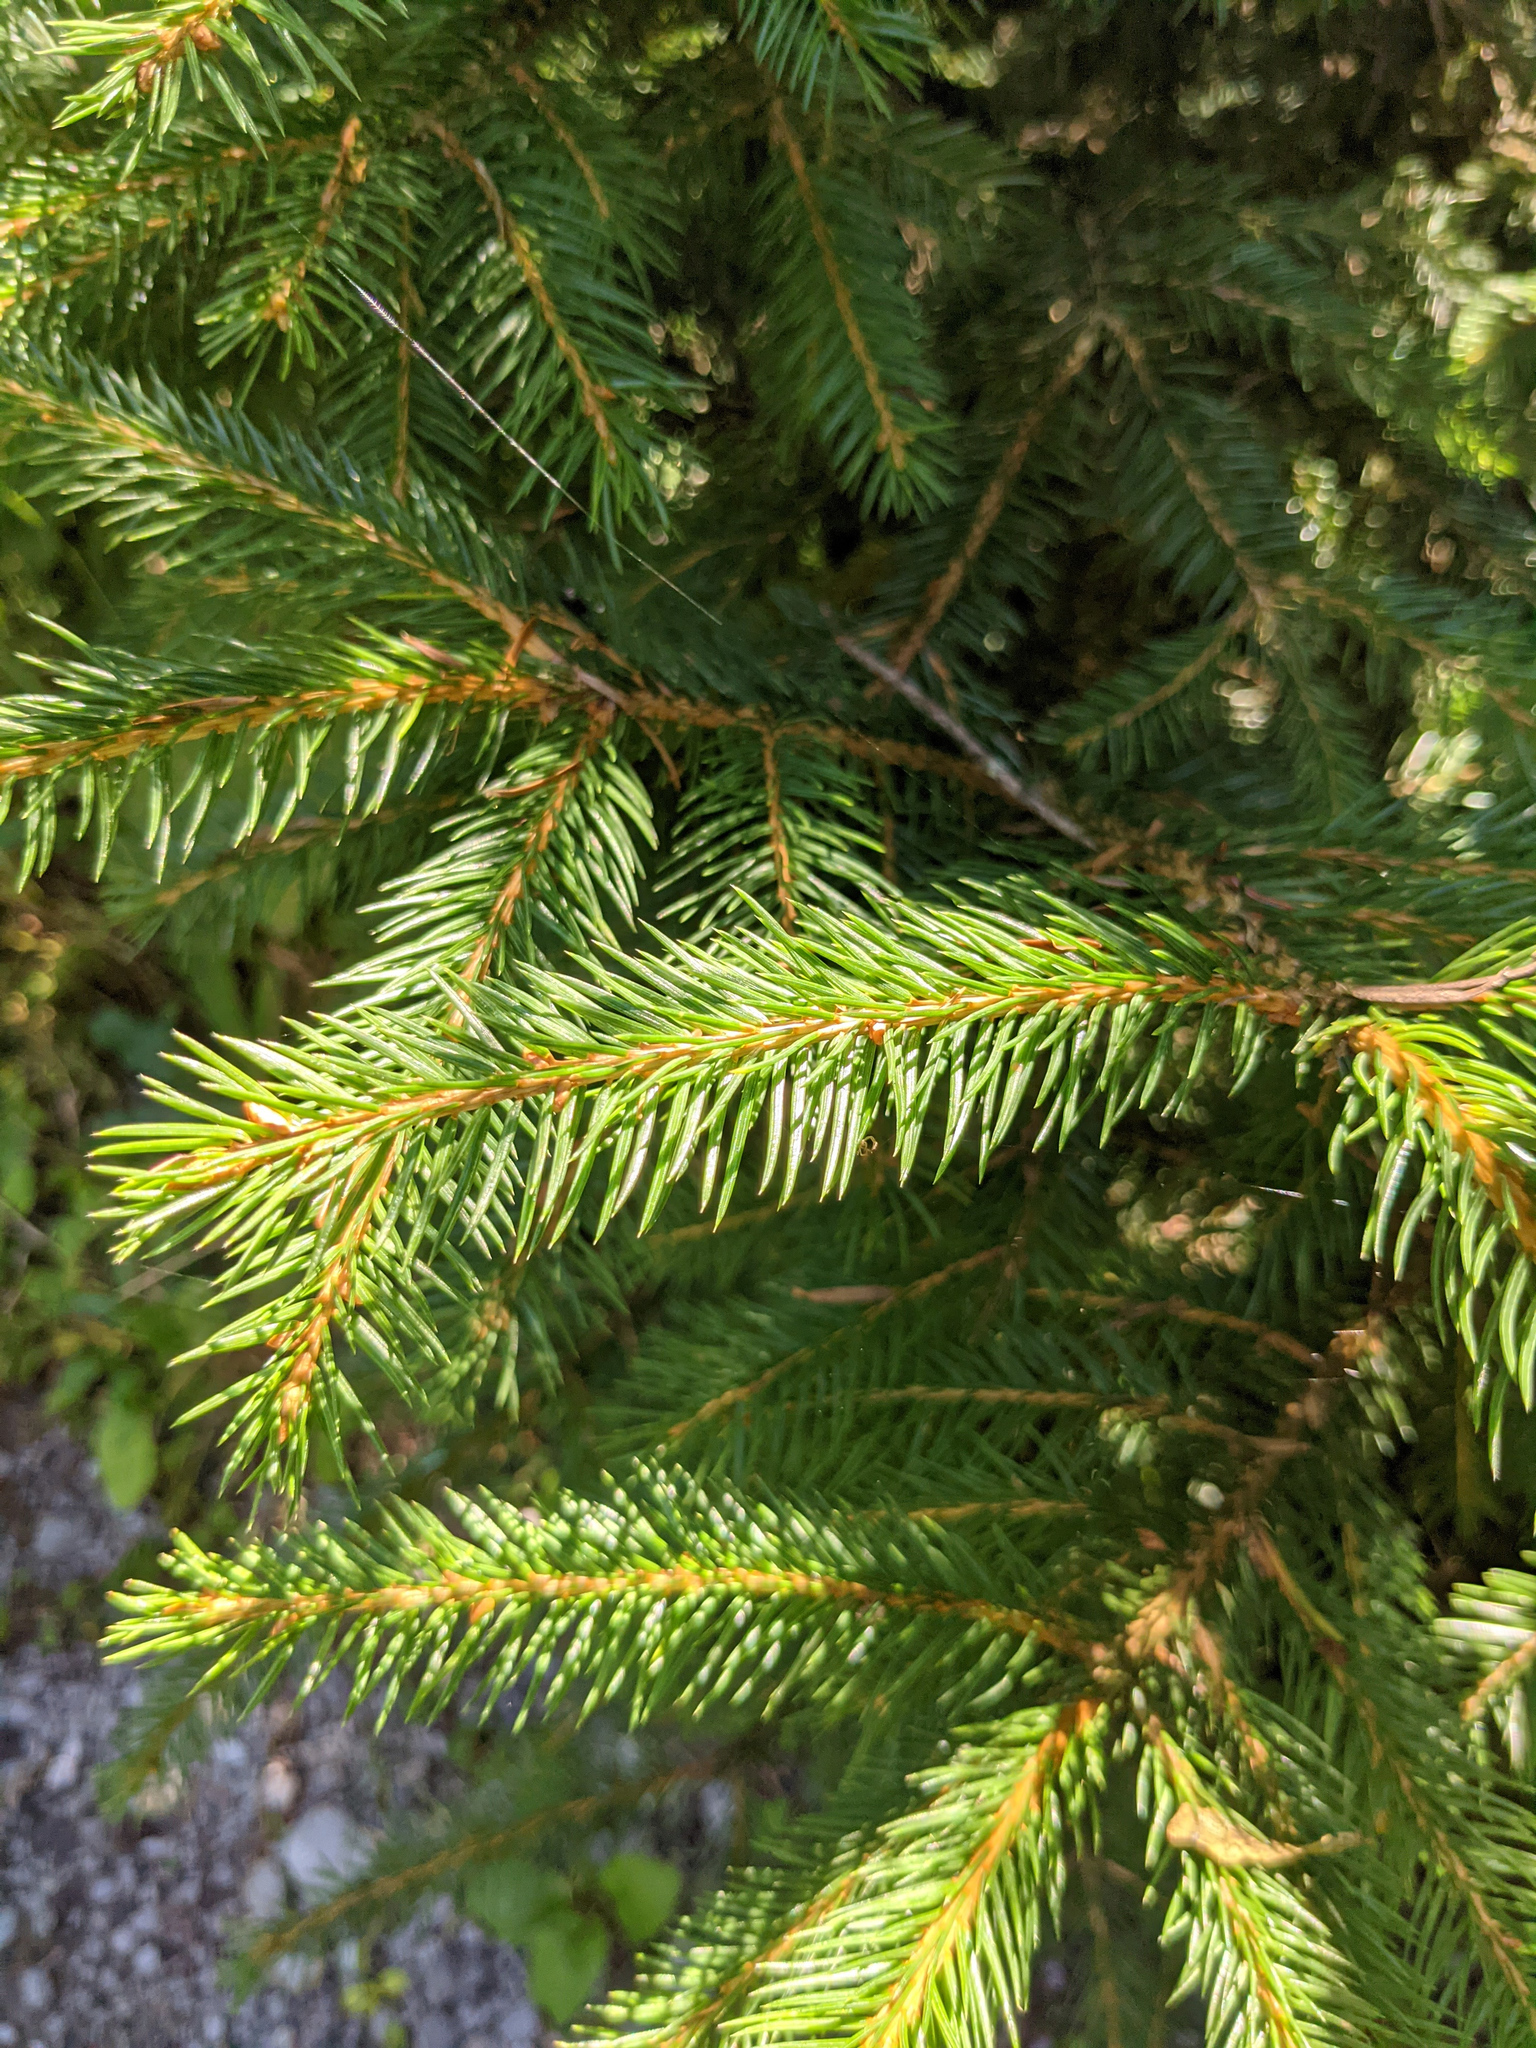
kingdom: Plantae
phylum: Tracheophyta
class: Pinopsida
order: Pinales
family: Pinaceae
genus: Picea
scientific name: Picea abies
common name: Norway spruce
